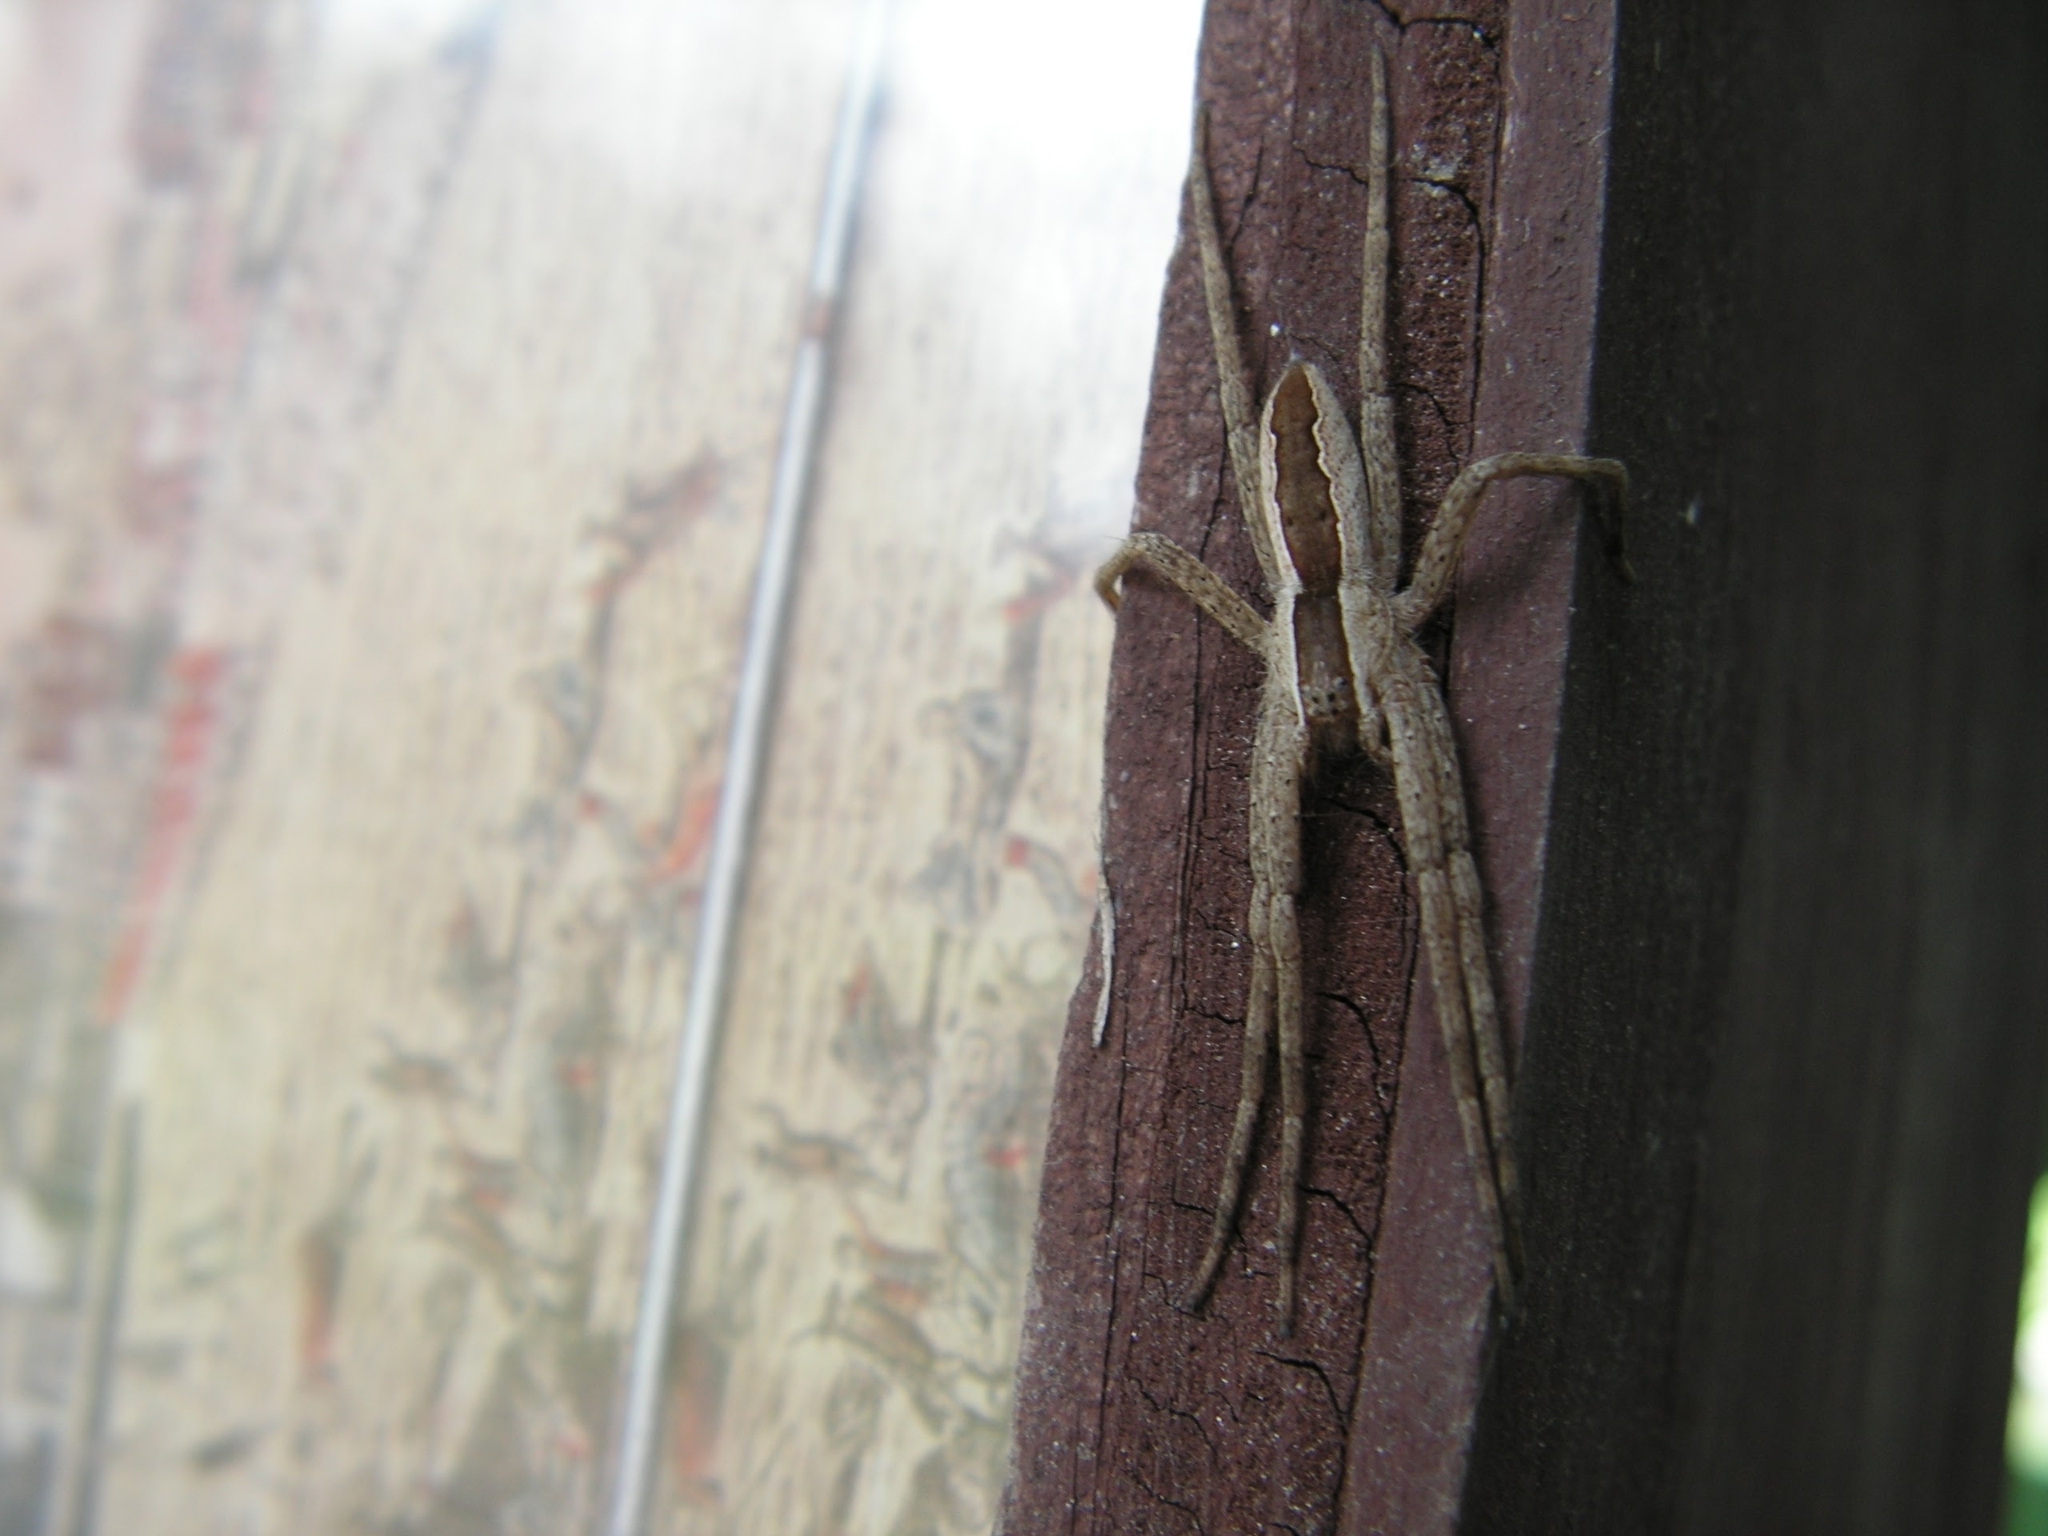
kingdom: Animalia
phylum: Arthropoda
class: Arachnida
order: Araneae
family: Pisauridae
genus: Pisaurina
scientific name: Pisaurina mira
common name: American nursery web spider
